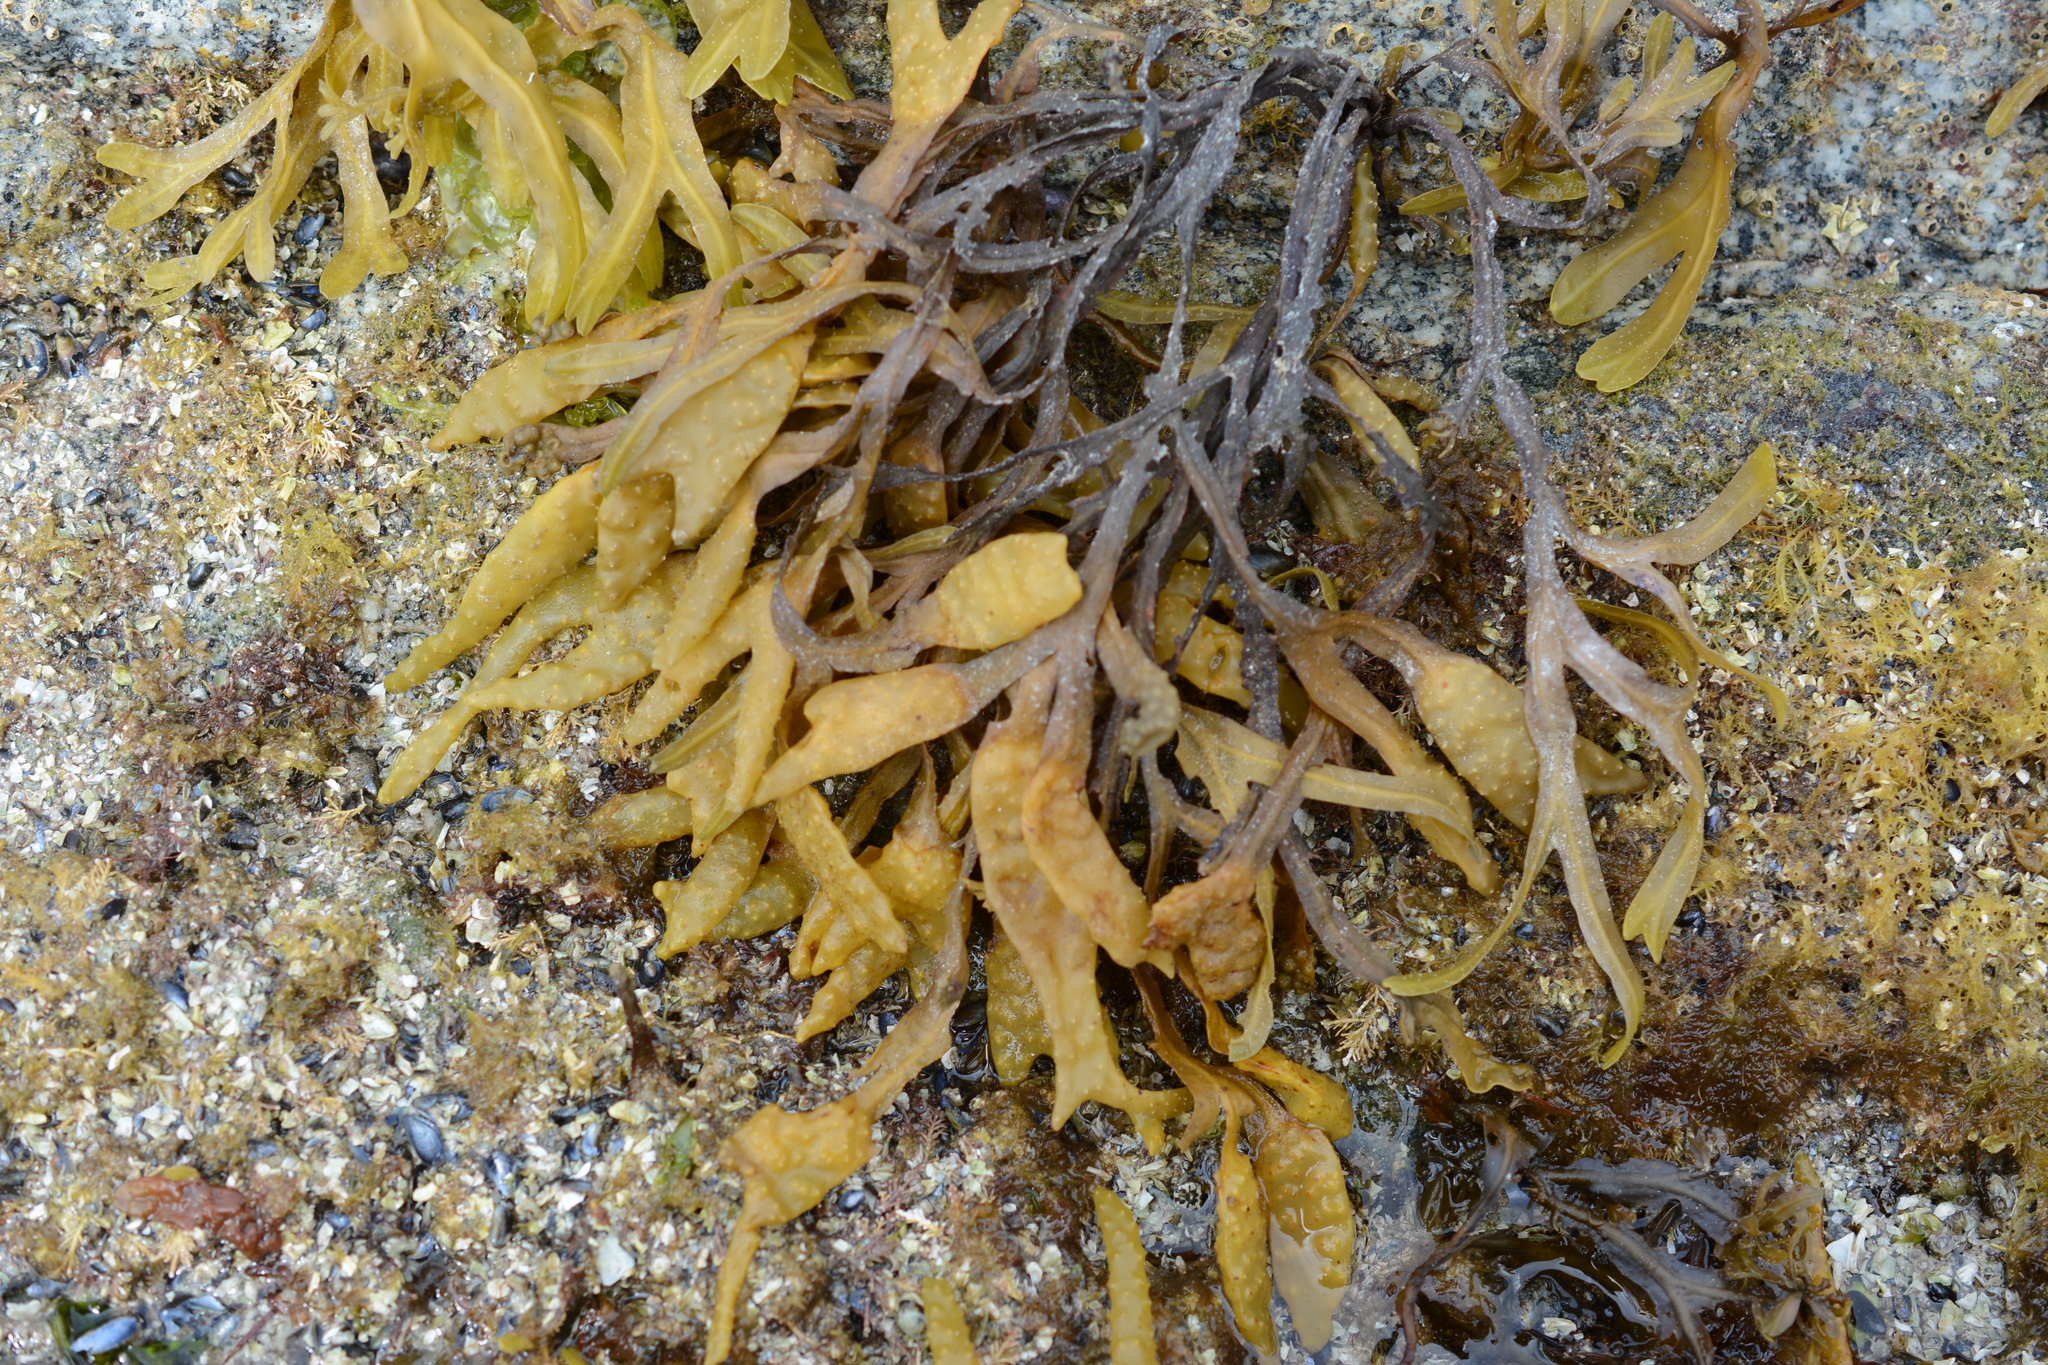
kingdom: Chromista
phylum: Ochrophyta
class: Phaeophyceae
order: Fucales
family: Fucaceae
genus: Fucus
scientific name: Fucus distichus
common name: Rockweed
